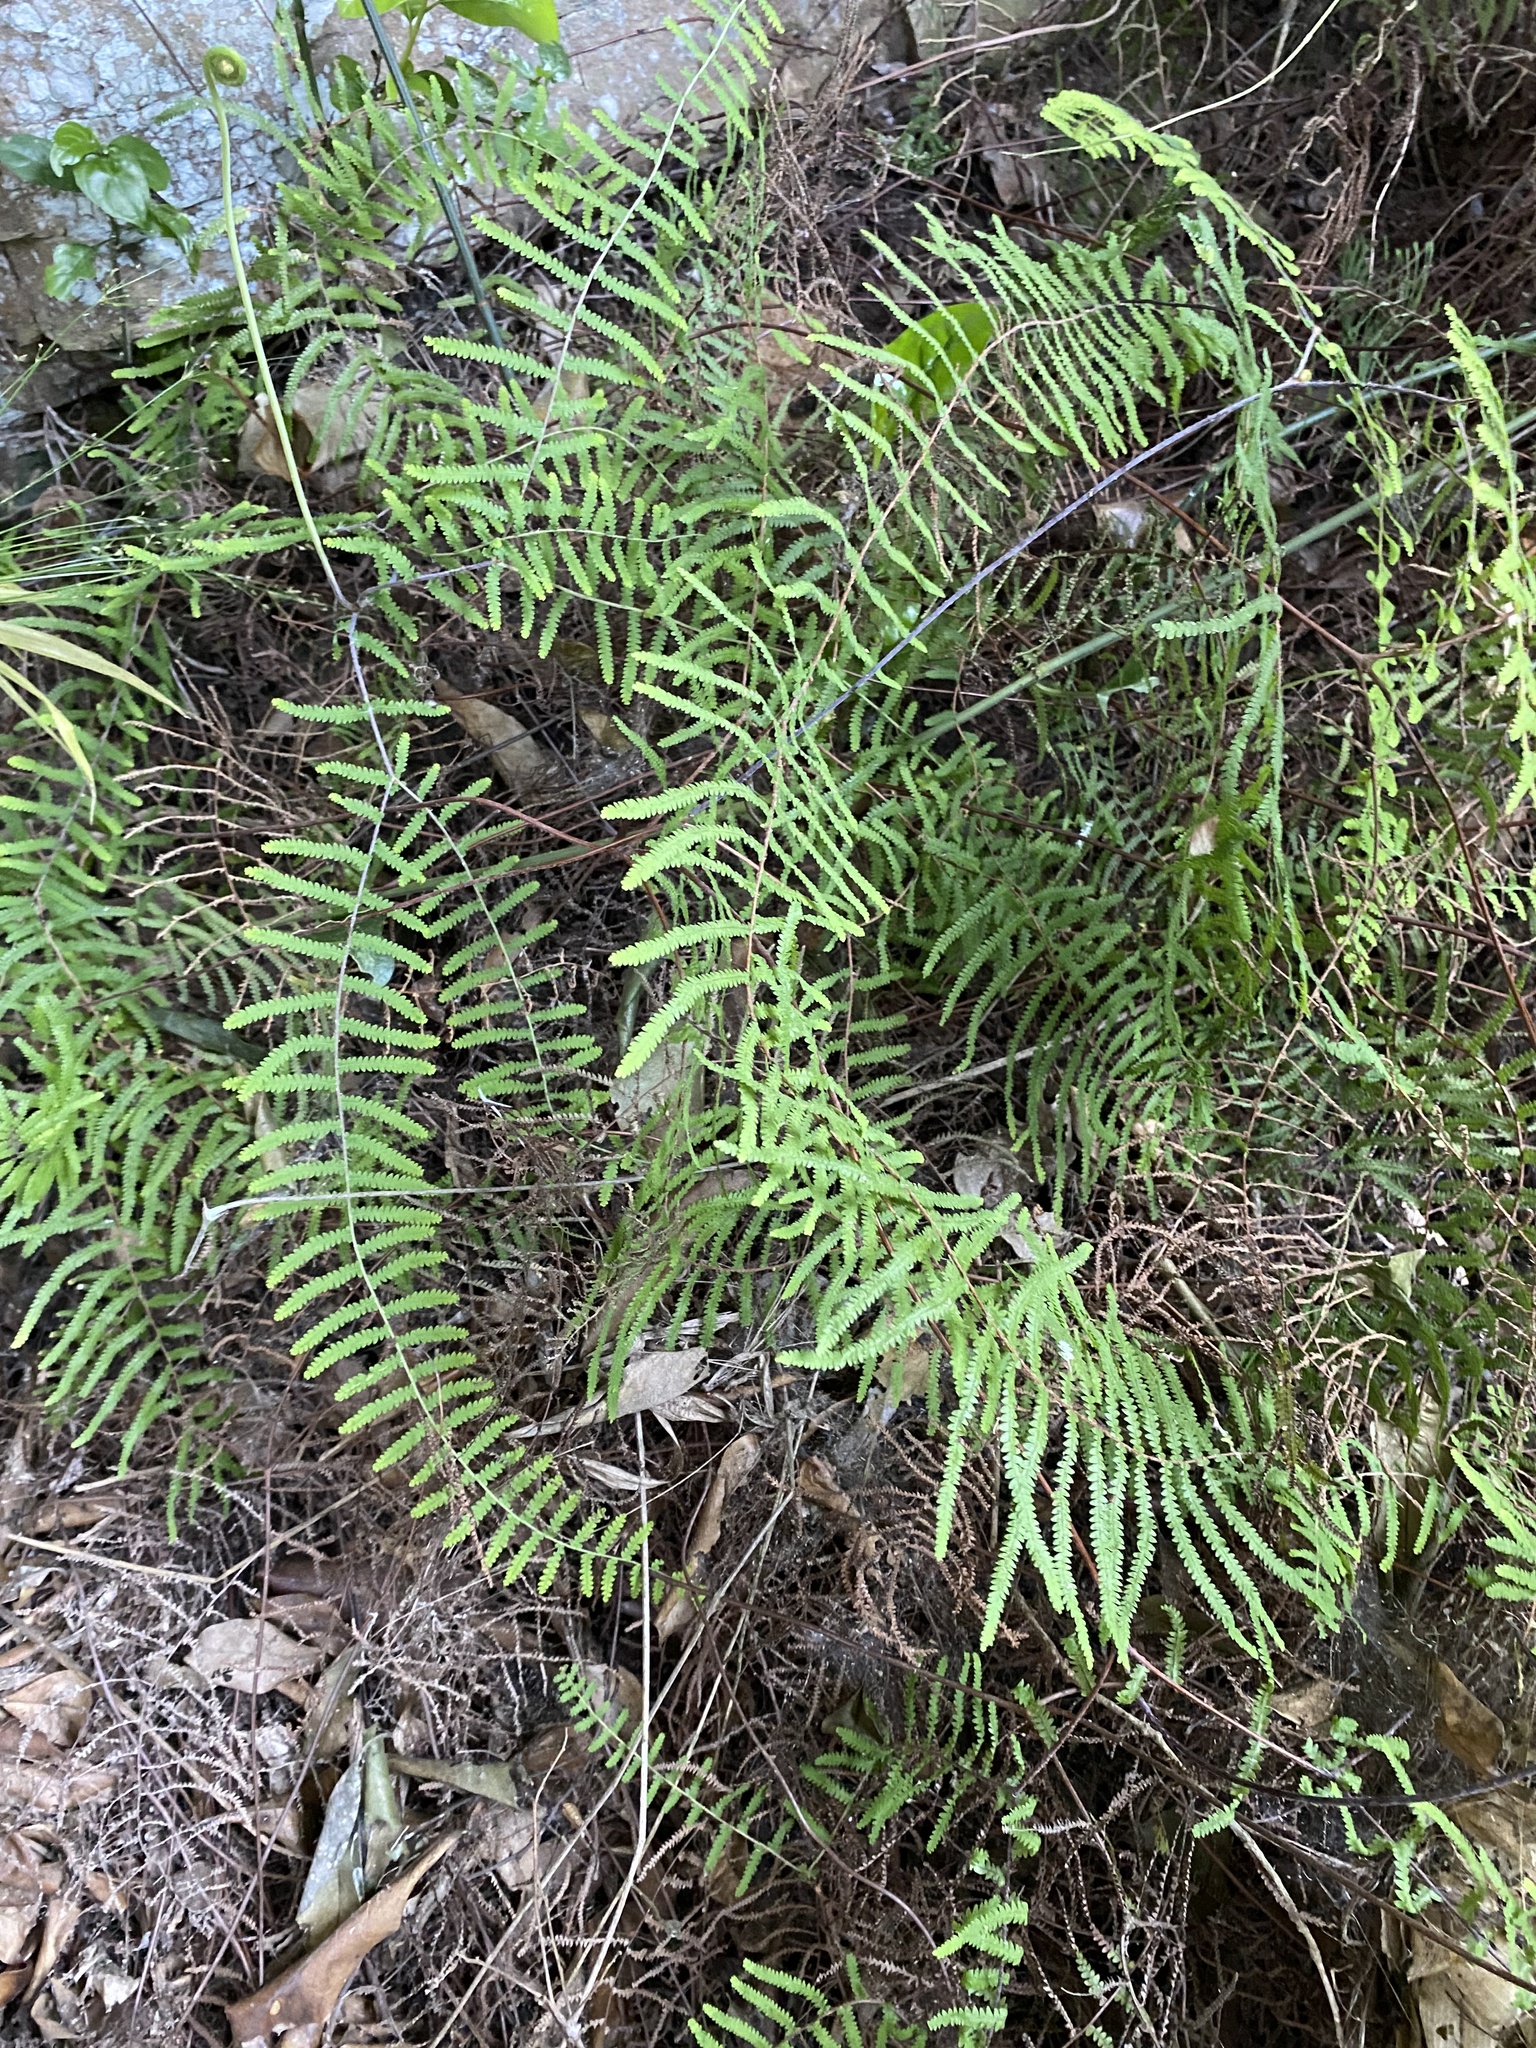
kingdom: Plantae
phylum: Tracheophyta
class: Polypodiopsida
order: Gleicheniales
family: Gleicheniaceae
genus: Gleichenia
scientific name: Gleichenia polypodioides
